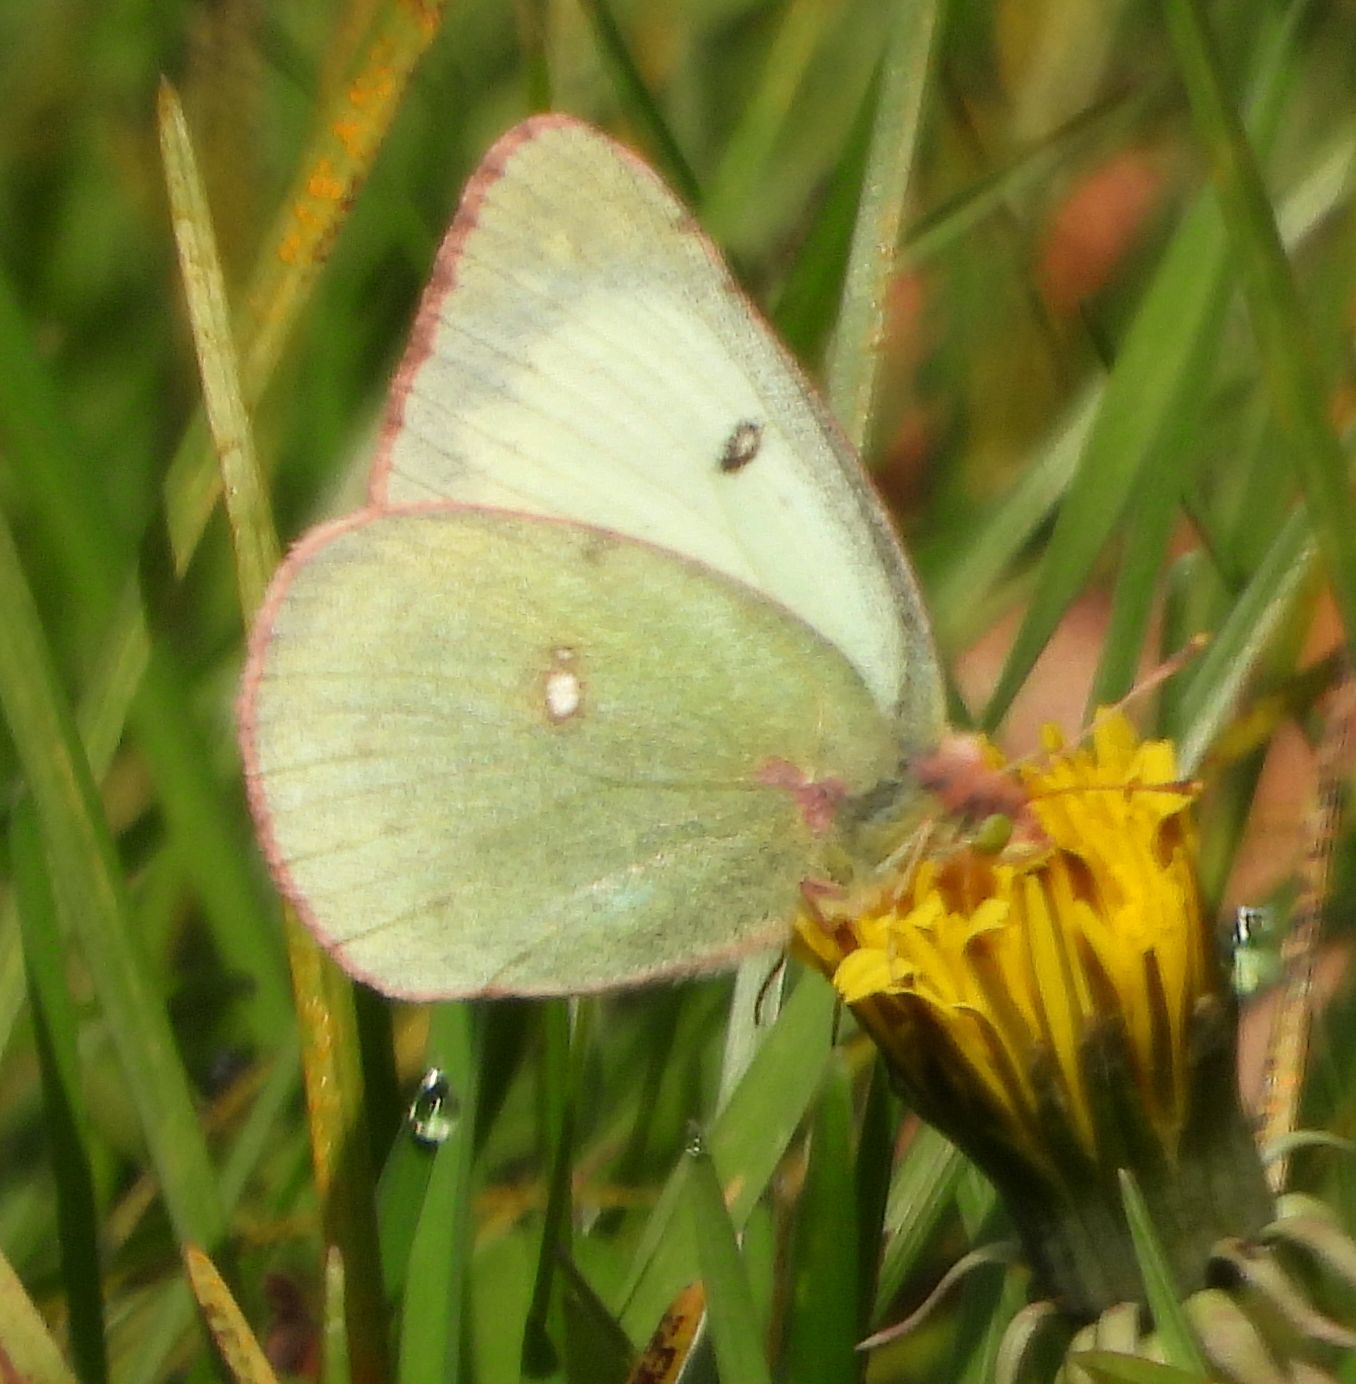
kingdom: Animalia
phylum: Arthropoda
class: Insecta
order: Lepidoptera
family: Pieridae
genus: Colias
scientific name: Colias philodice
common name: Clouded sulphur
